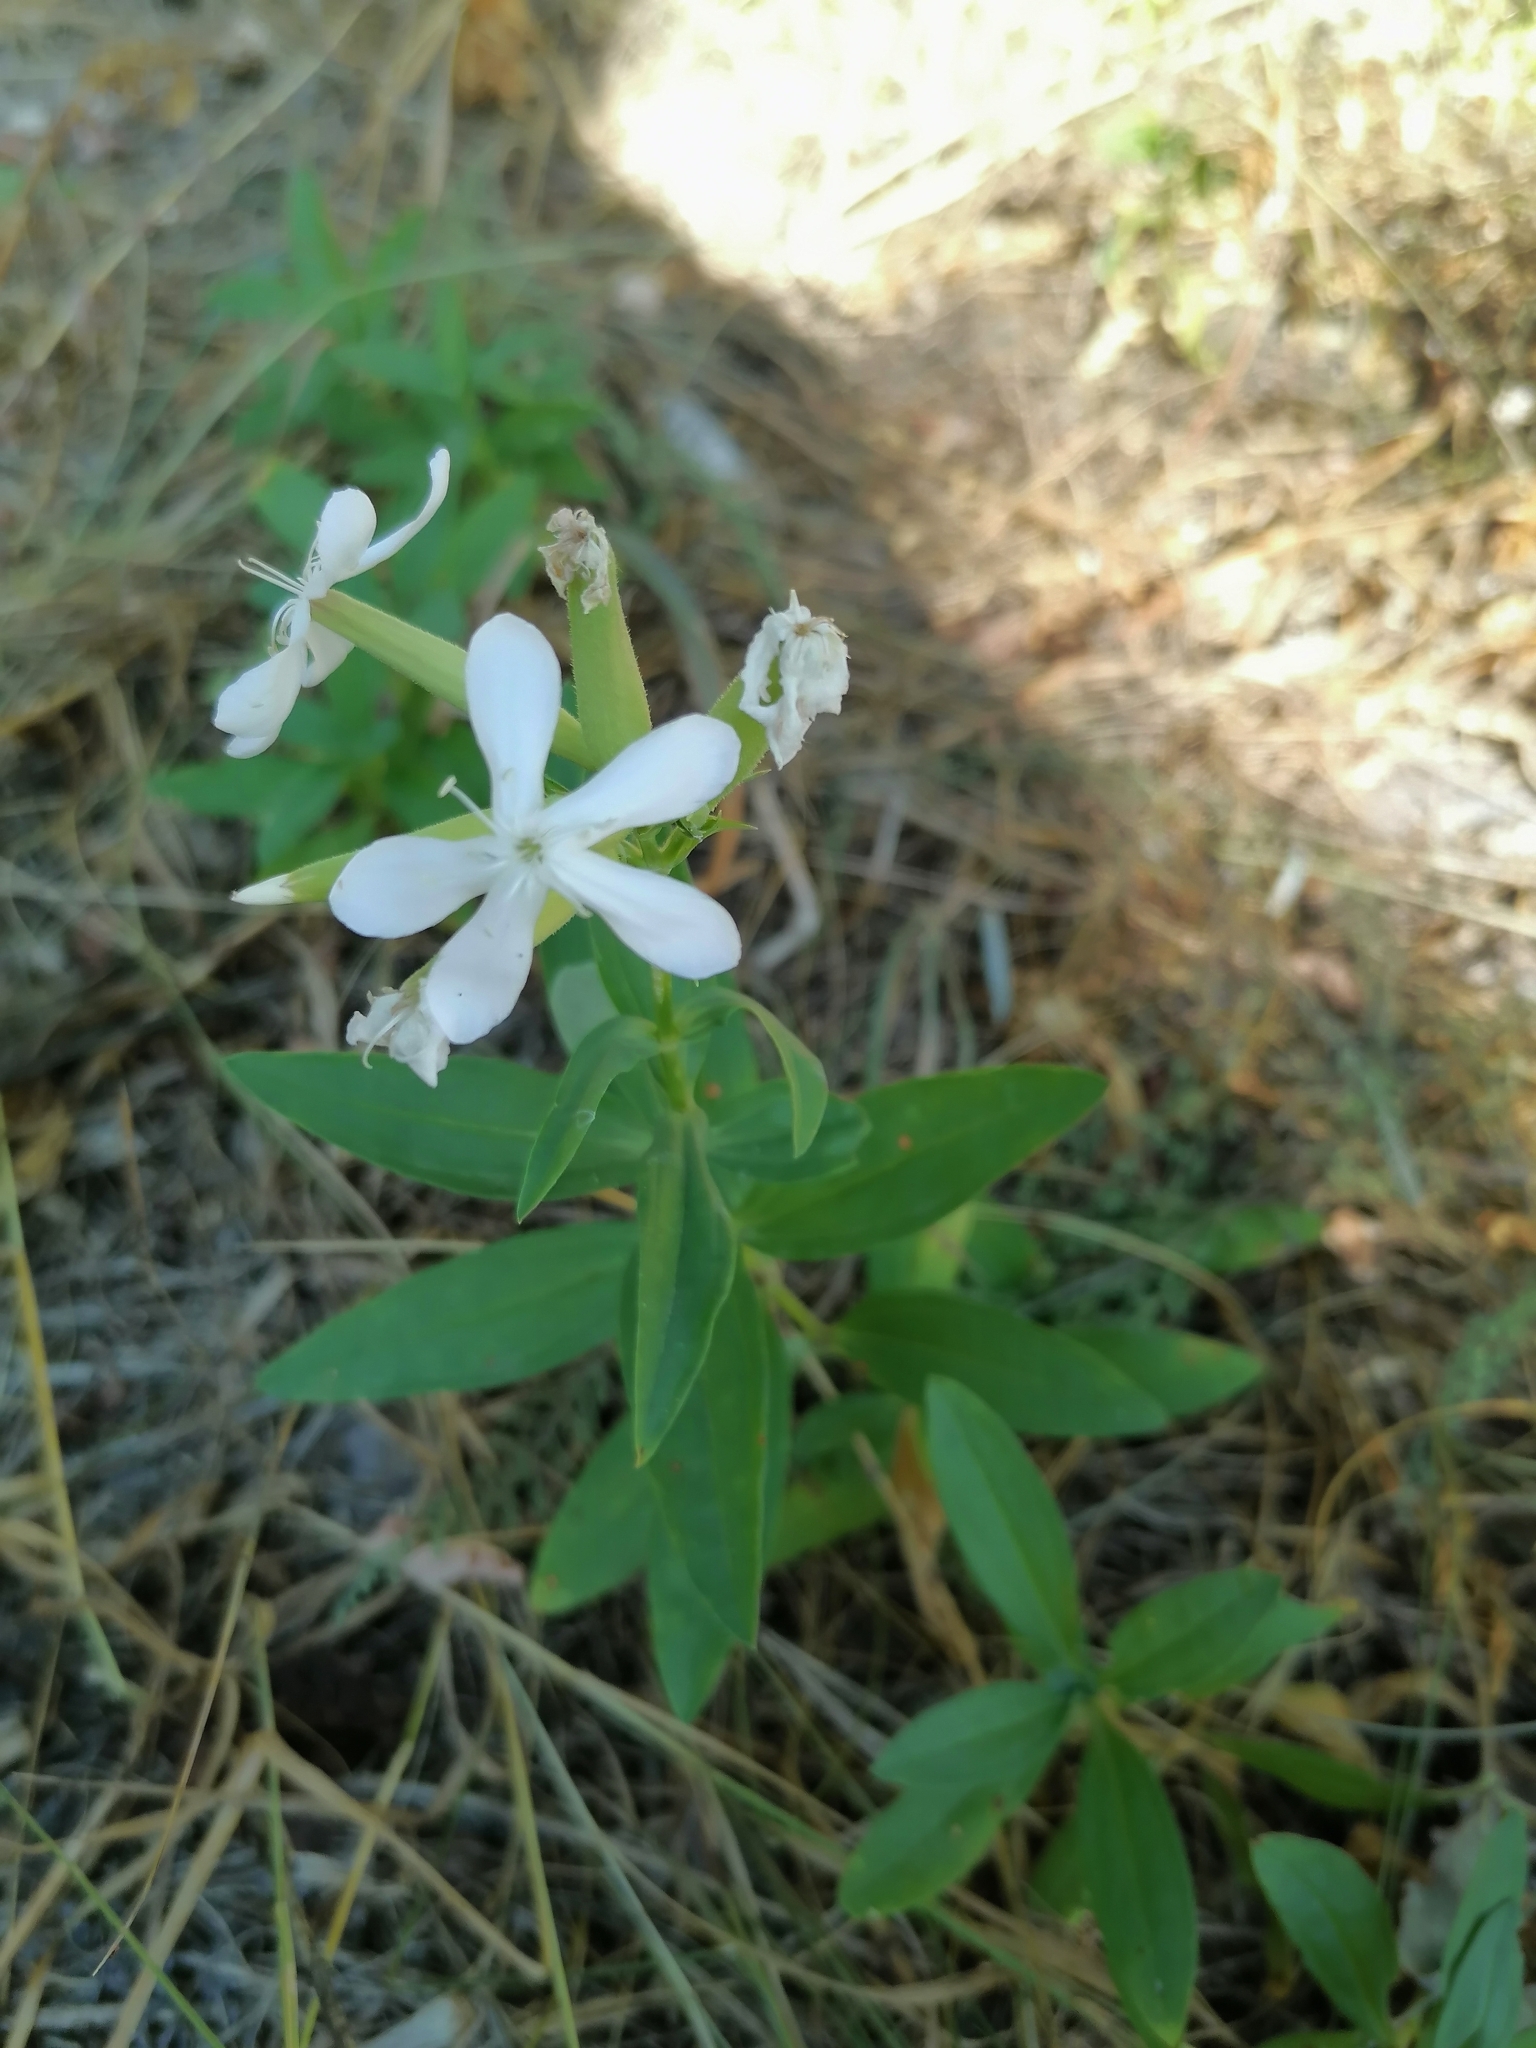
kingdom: Plantae
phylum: Tracheophyta
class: Magnoliopsida
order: Caryophyllales
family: Caryophyllaceae
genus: Saponaria
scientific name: Saponaria officinalis
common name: Soapwort
